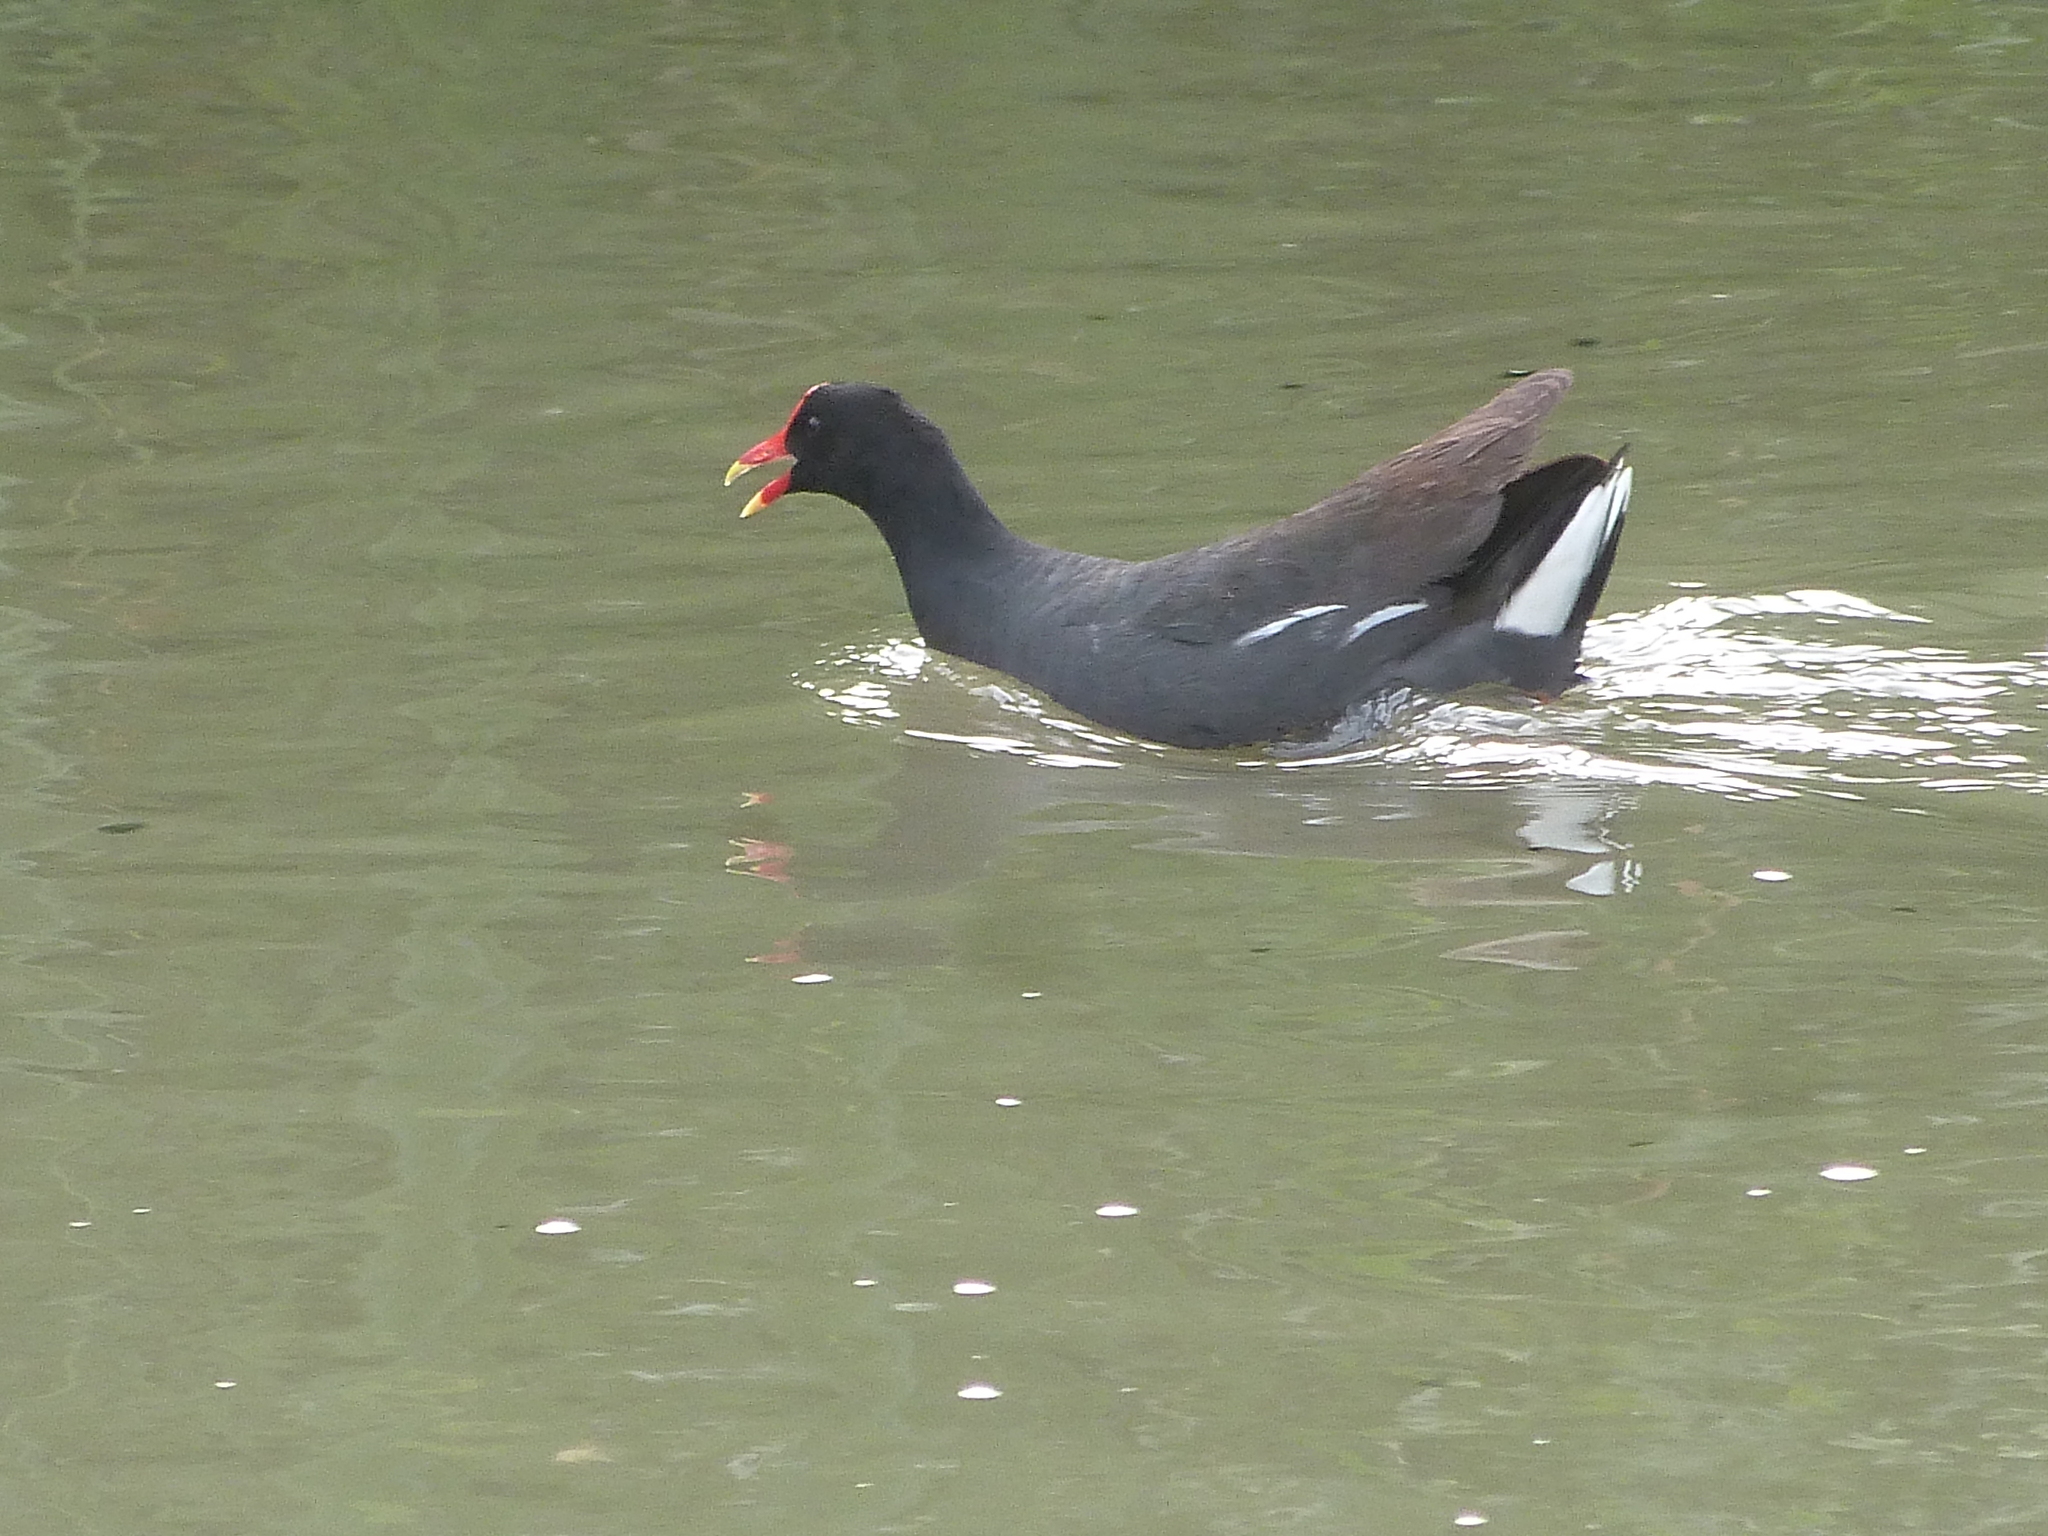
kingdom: Animalia
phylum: Chordata
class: Aves
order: Gruiformes
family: Rallidae
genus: Gallinula
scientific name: Gallinula chloropus
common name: Common moorhen
